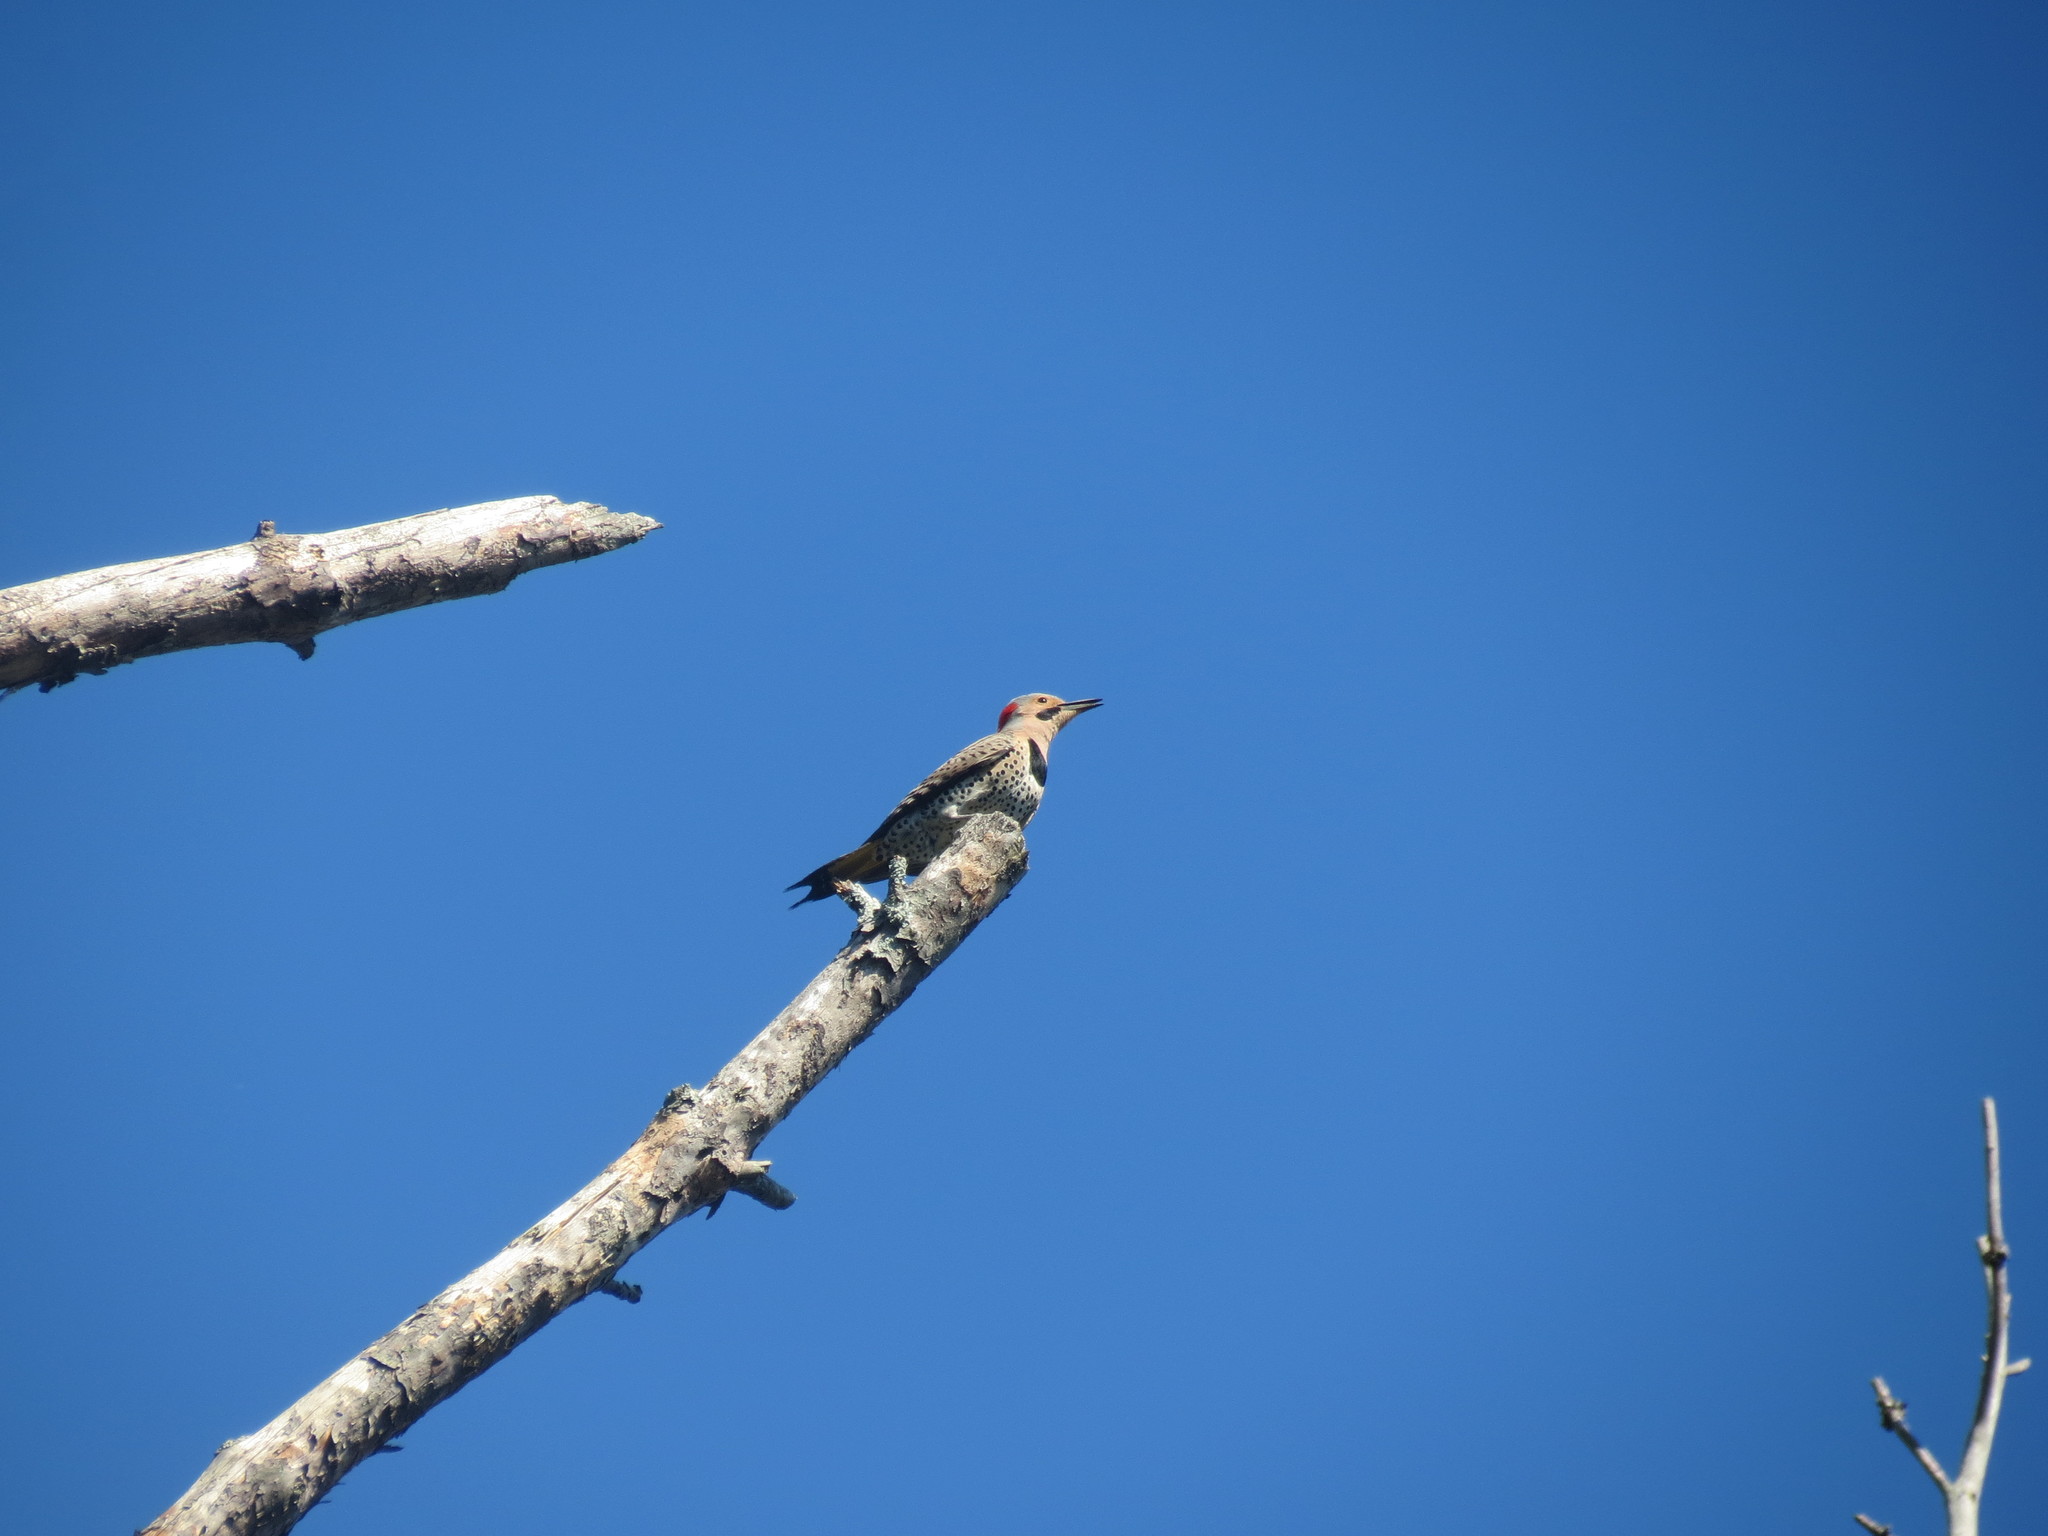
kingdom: Animalia
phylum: Chordata
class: Aves
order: Piciformes
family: Picidae
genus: Colaptes
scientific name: Colaptes auratus
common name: Northern flicker
